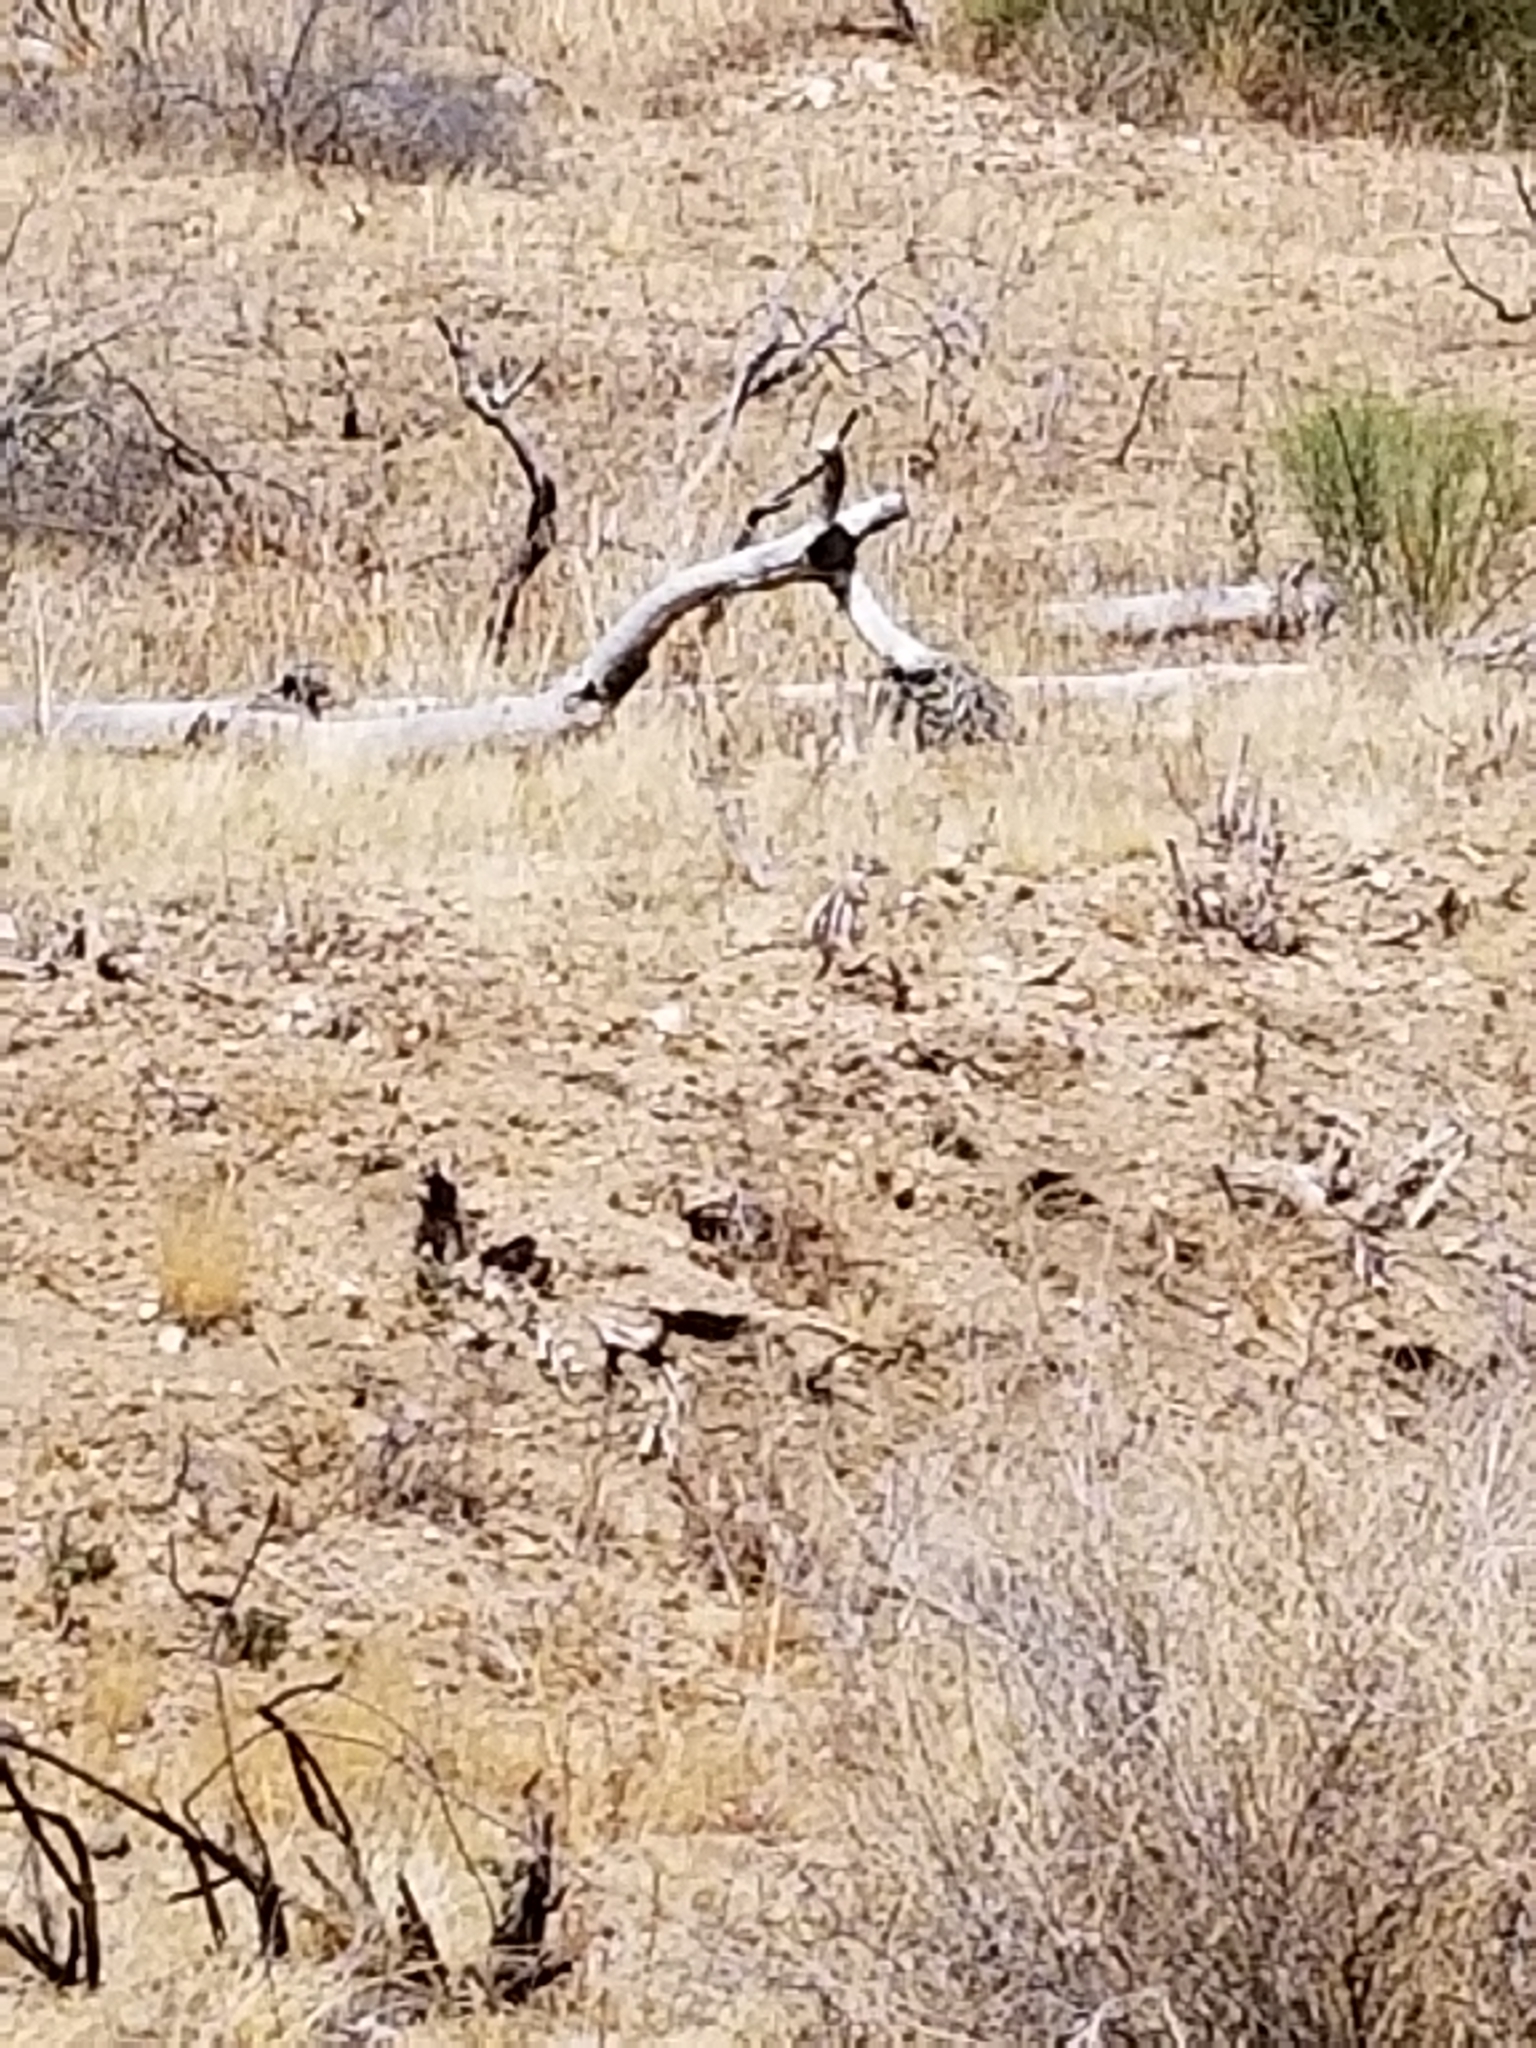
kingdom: Animalia
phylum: Chordata
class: Mammalia
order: Rodentia
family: Sciuridae
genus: Ammospermophilus
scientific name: Ammospermophilus leucurus
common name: White-tailed antelope squirrel
